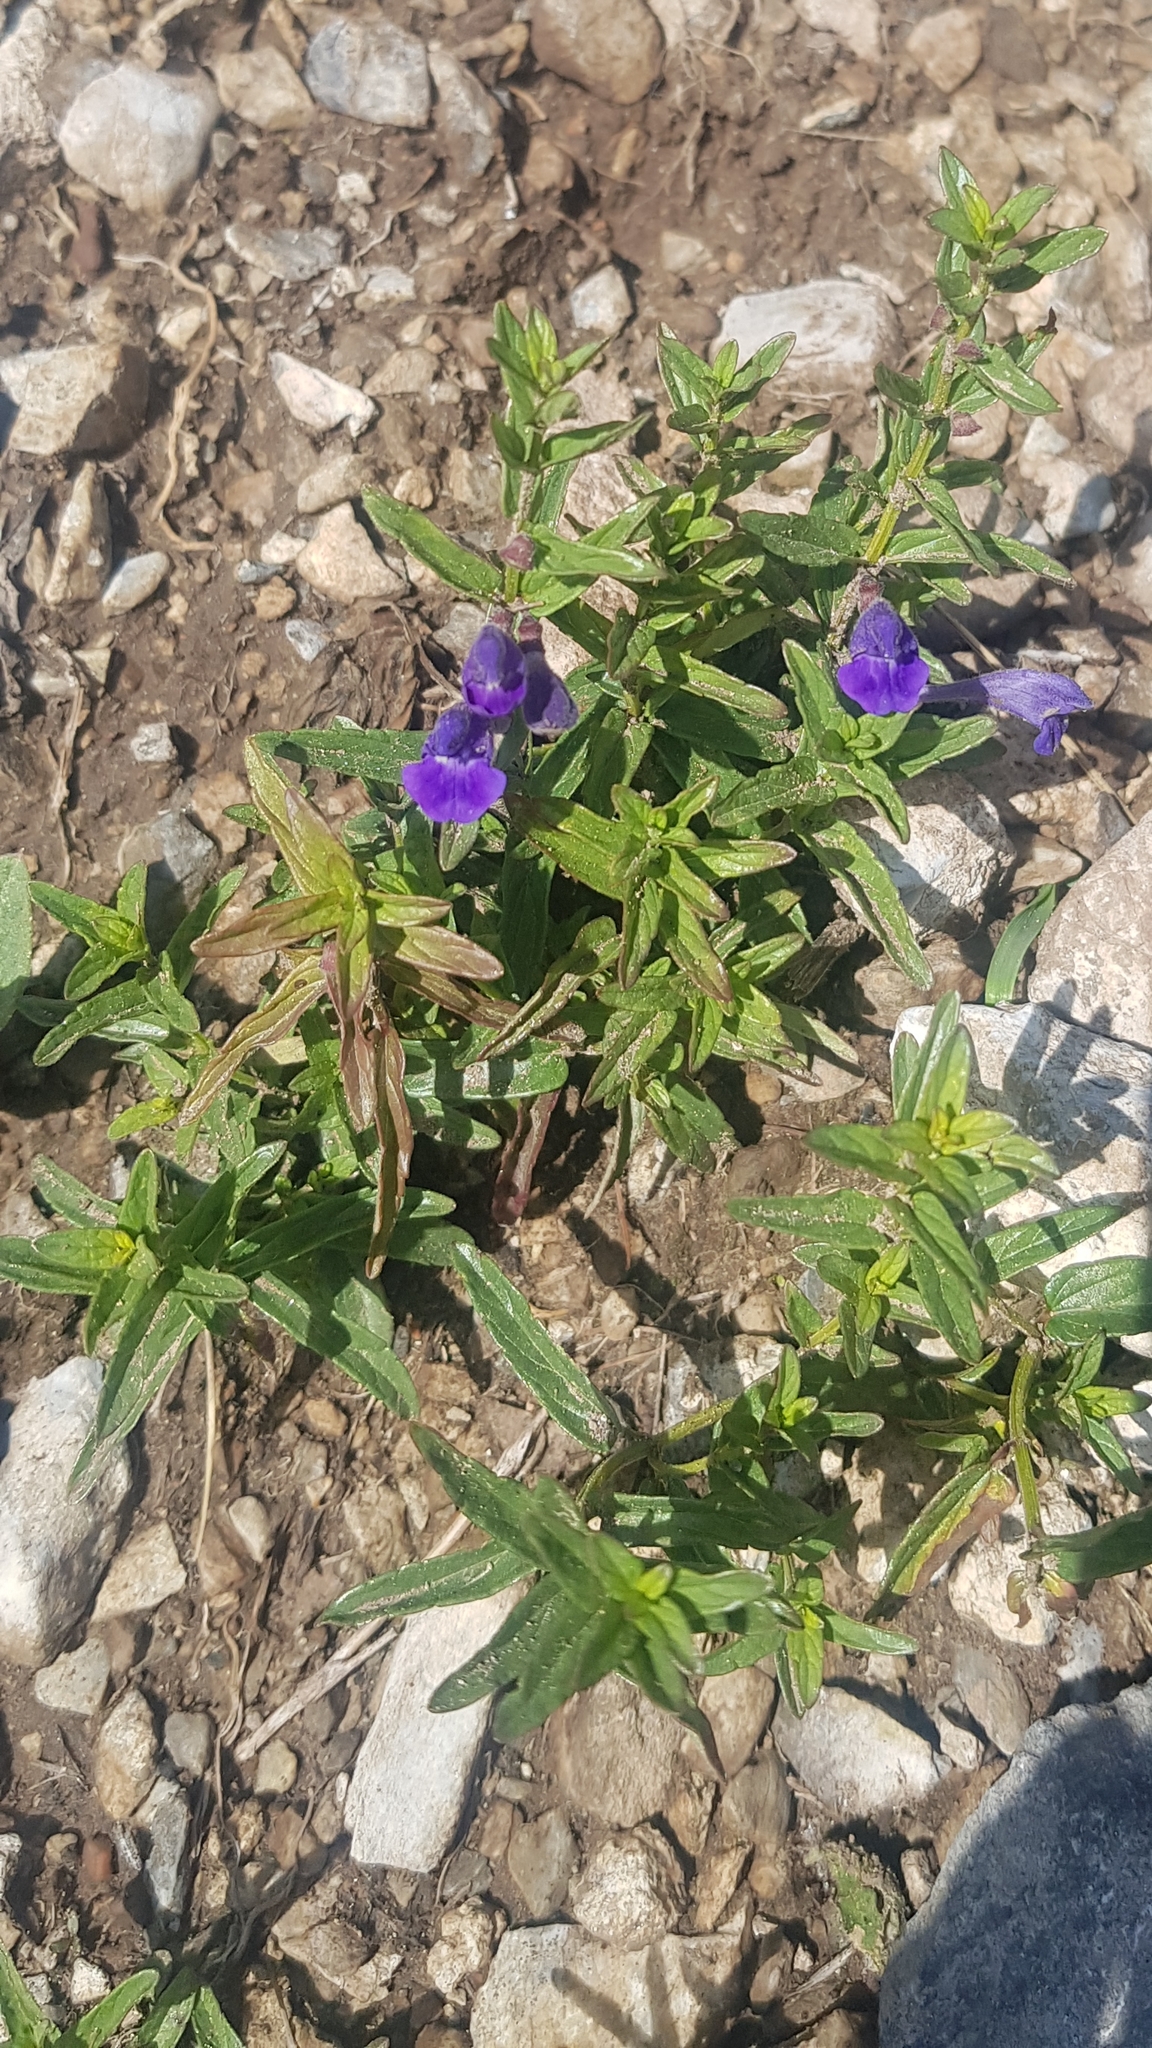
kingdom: Plantae
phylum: Tracheophyta
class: Magnoliopsida
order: Lamiales
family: Lamiaceae
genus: Scutellaria
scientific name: Scutellaria scordiifolia
